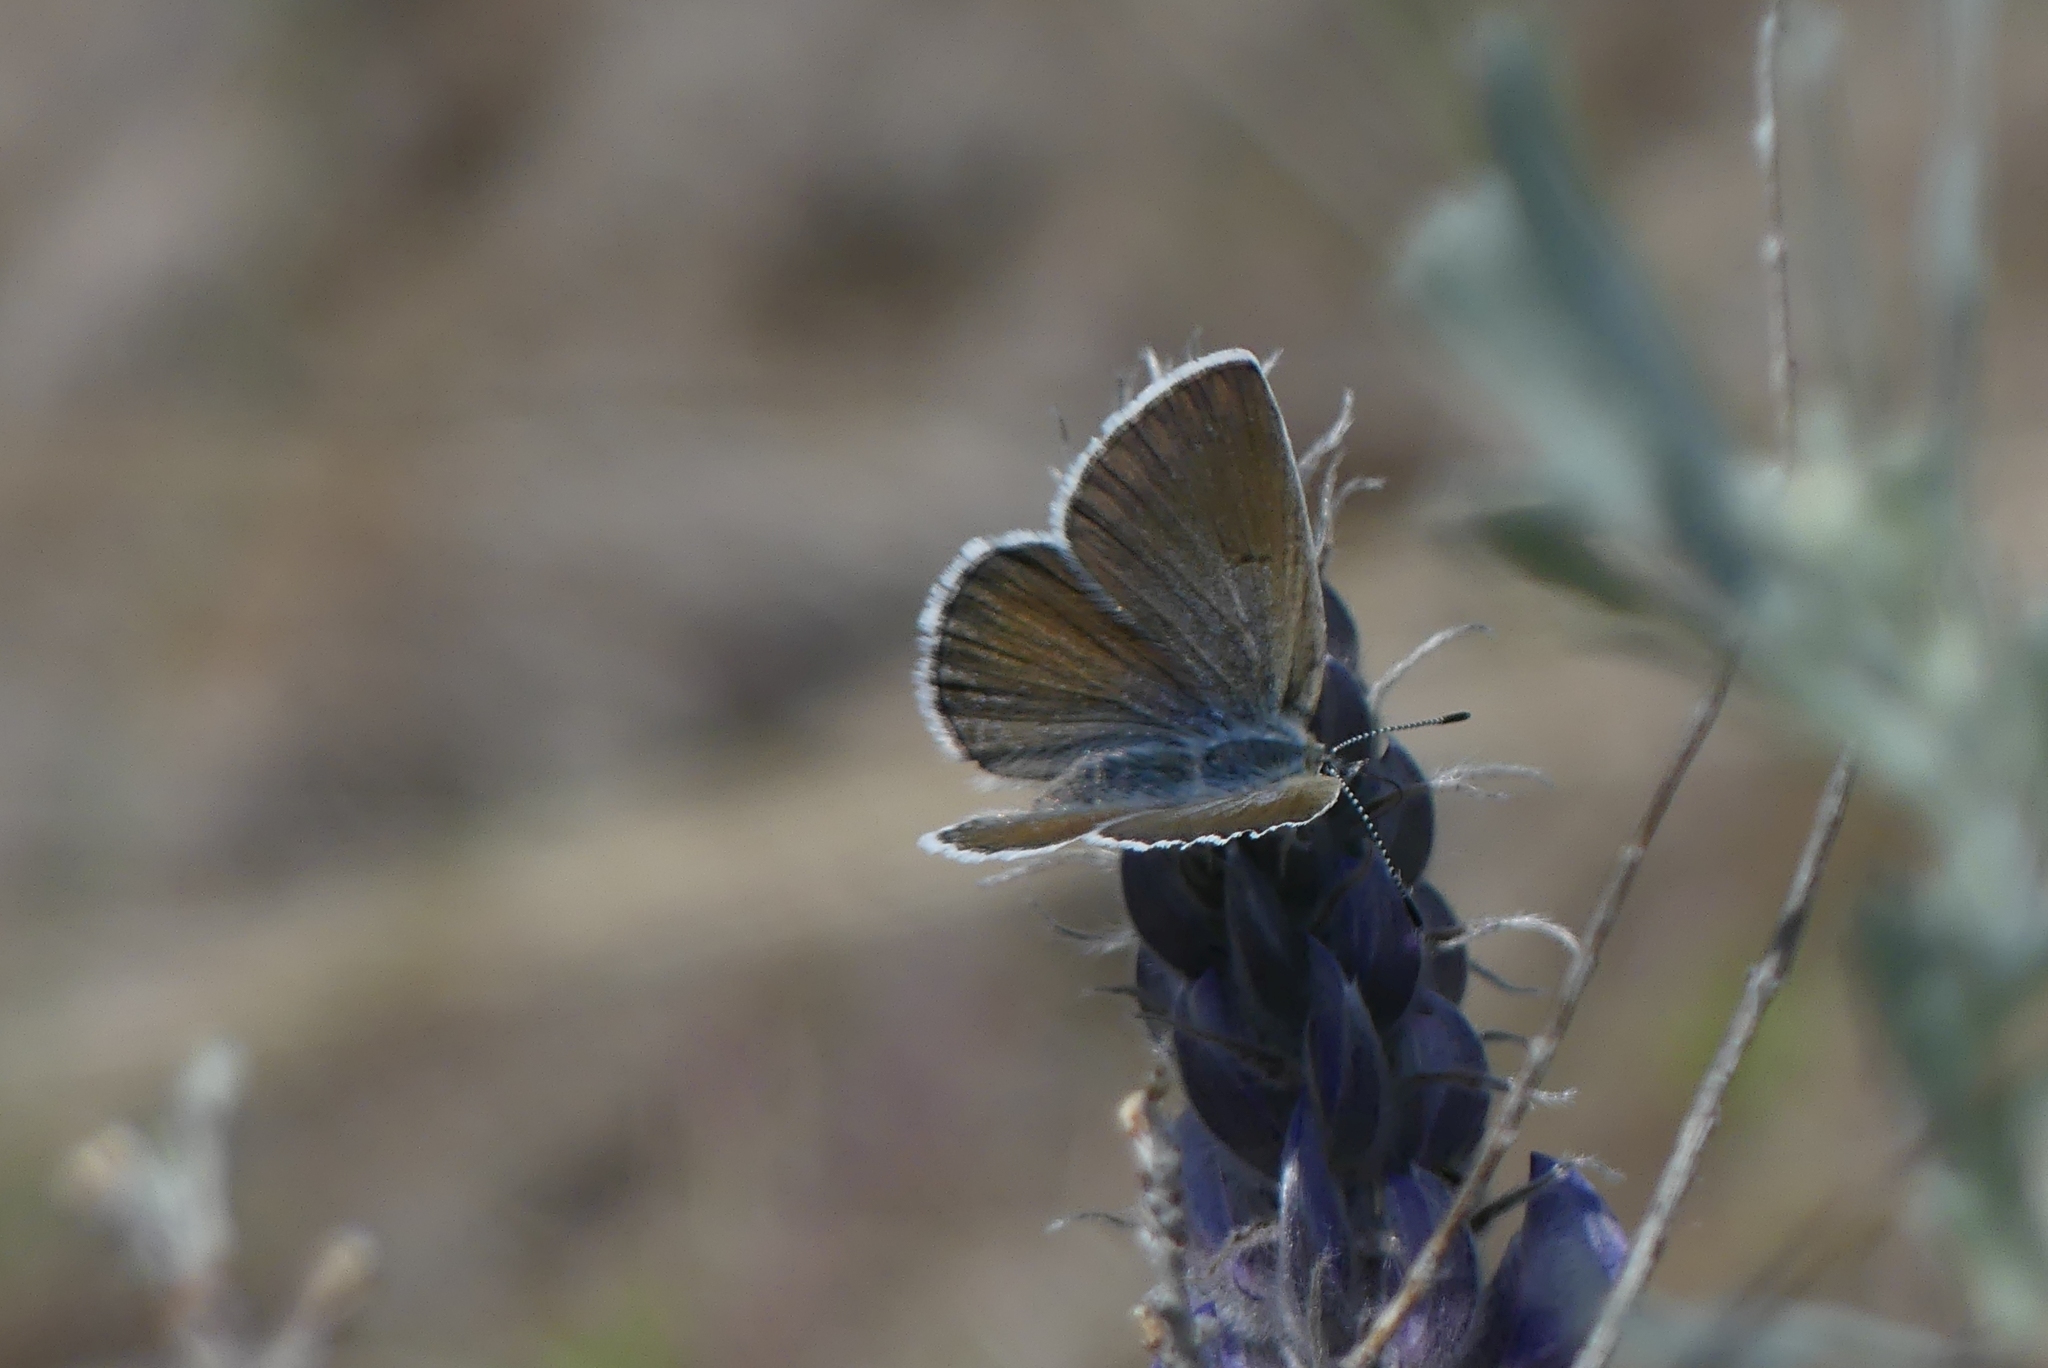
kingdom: Animalia
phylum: Arthropoda
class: Insecta
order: Lepidoptera
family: Lycaenidae
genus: Icaricia
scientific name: Icaricia icarioides
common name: Boisduval's blue
